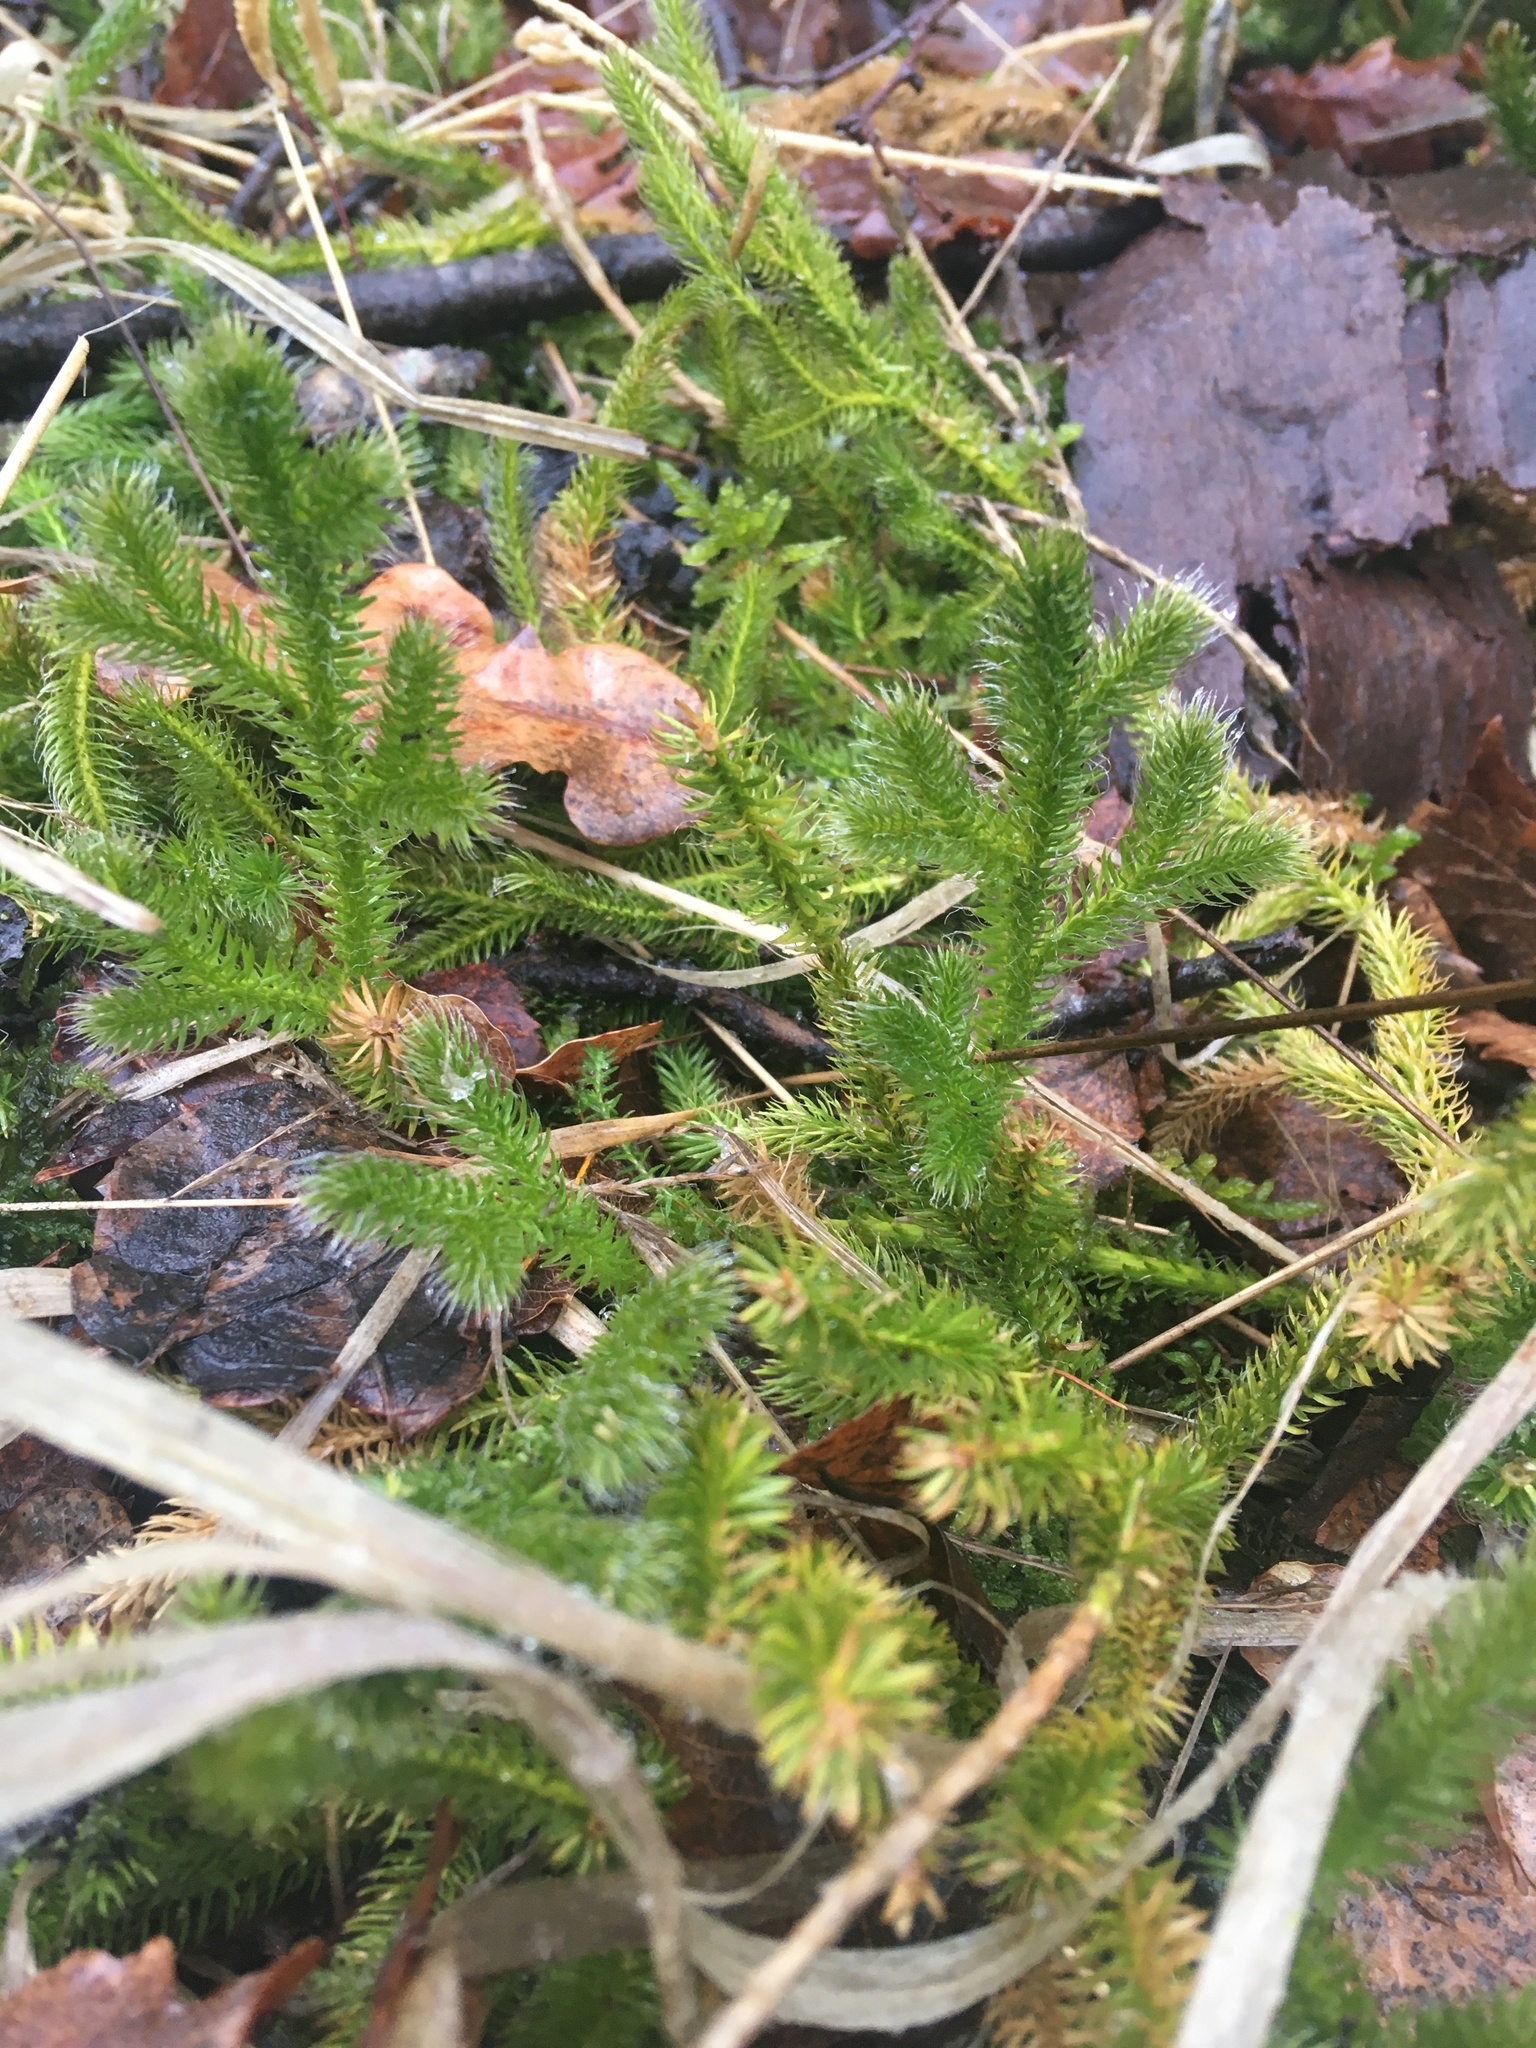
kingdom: Plantae
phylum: Tracheophyta
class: Lycopodiopsida
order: Lycopodiales
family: Lycopodiaceae
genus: Lycopodium
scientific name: Lycopodium clavatum
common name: Stag's-horn clubmoss
